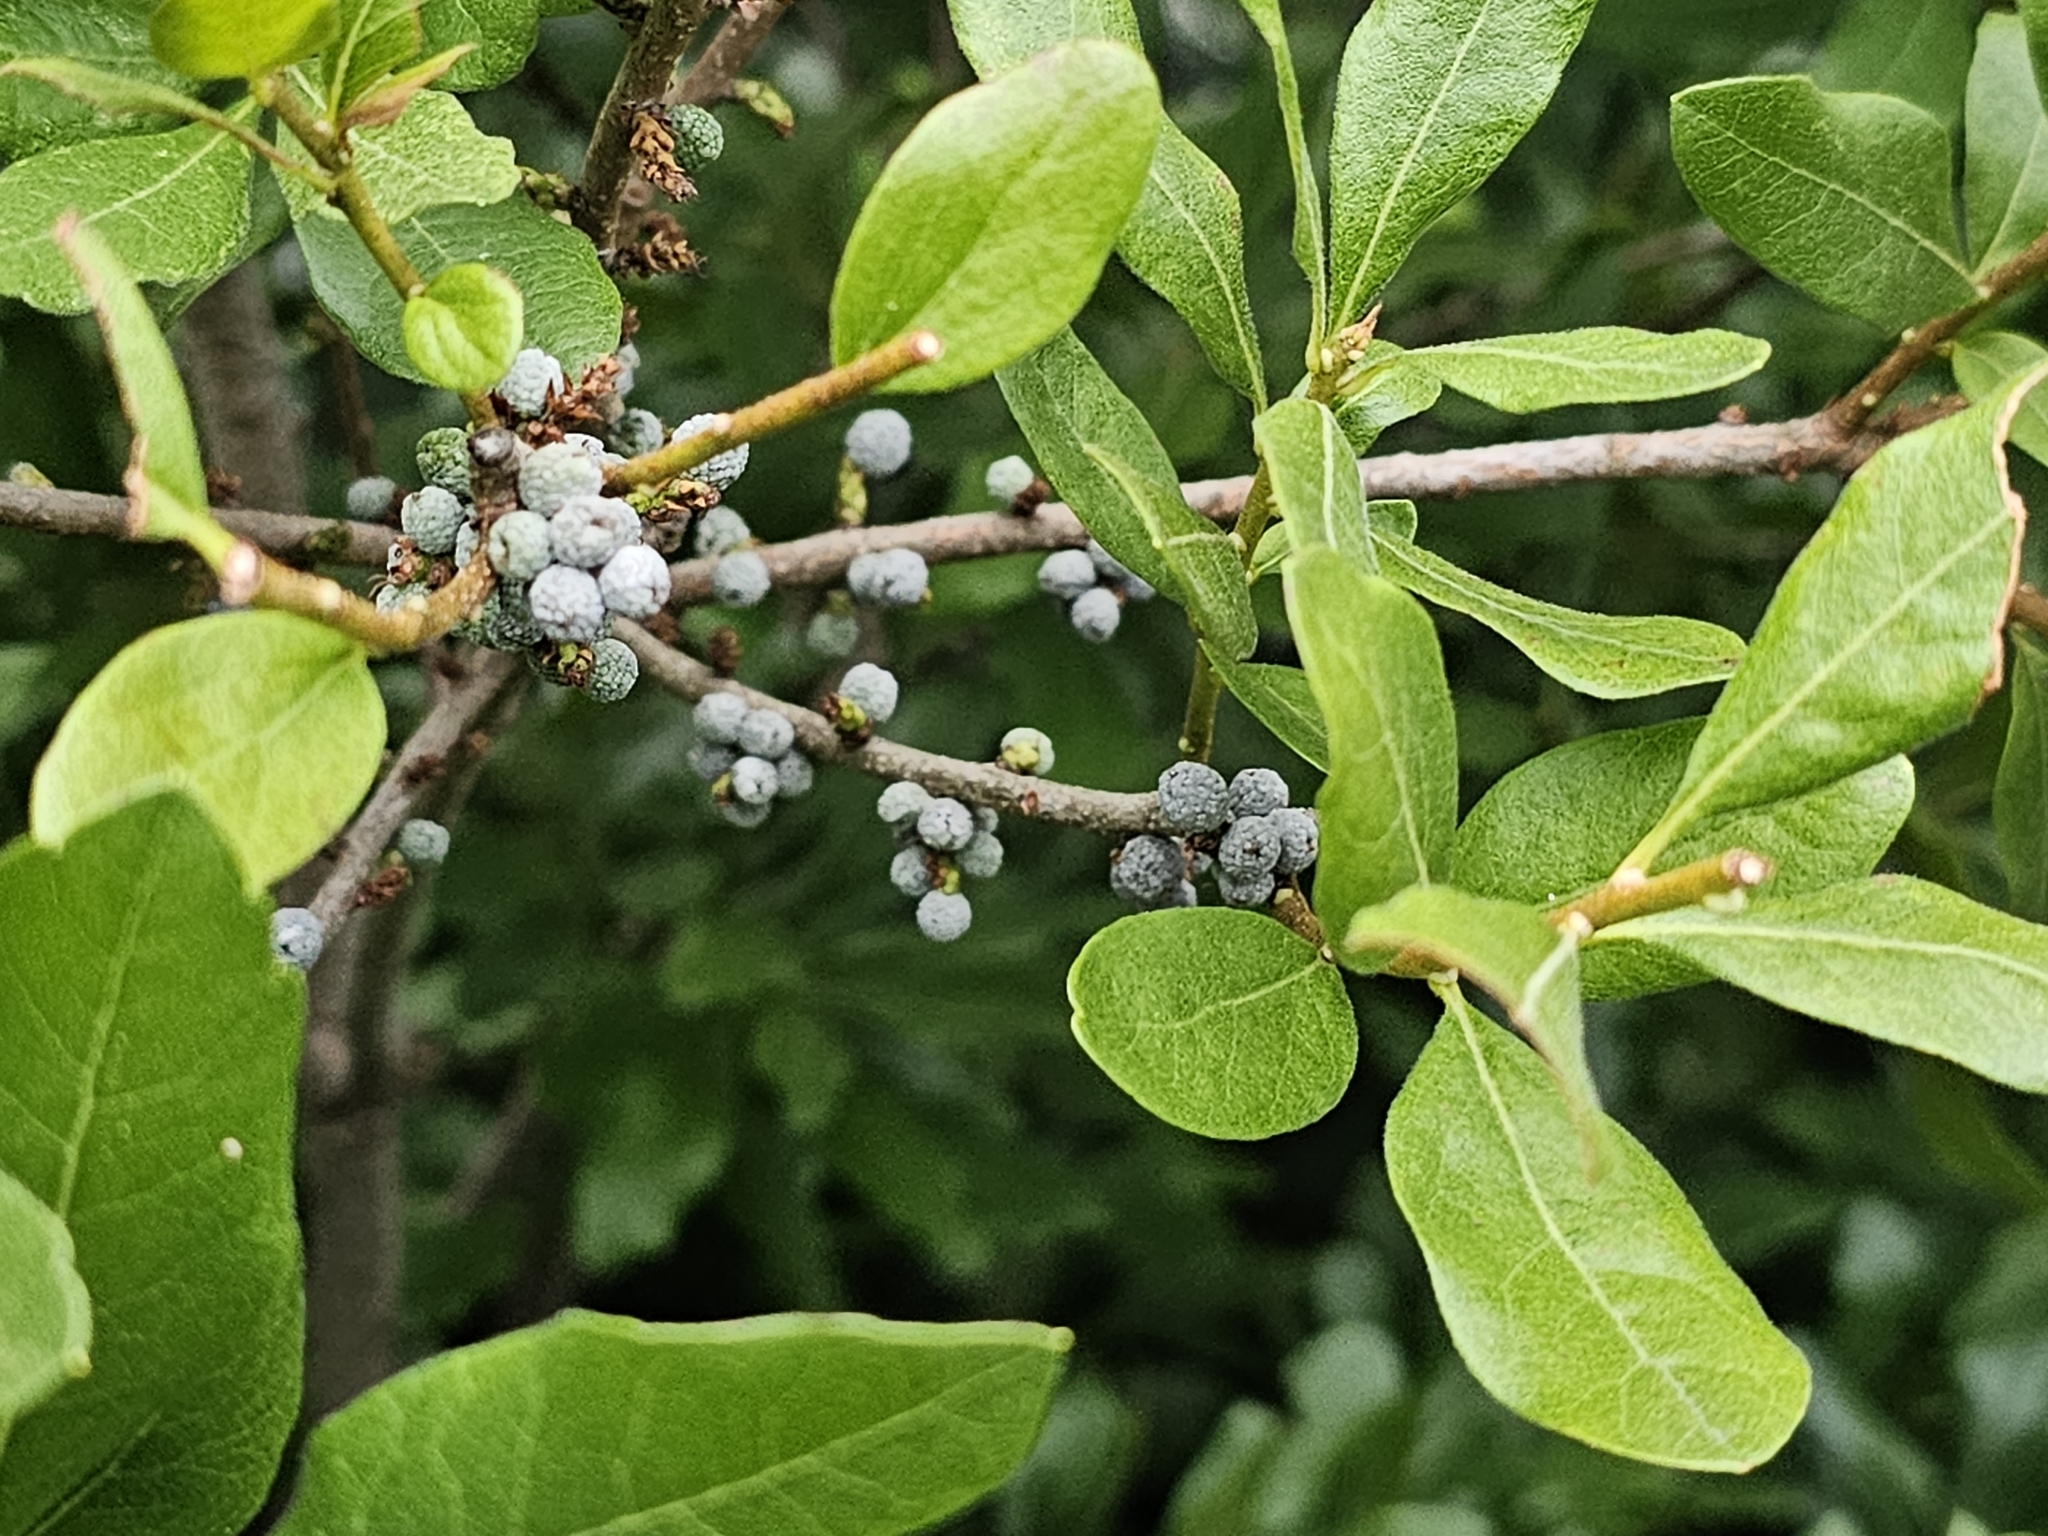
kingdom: Plantae
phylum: Tracheophyta
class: Magnoliopsida
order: Fagales
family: Myricaceae
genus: Morella
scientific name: Morella pensylvanica
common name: Northern bayberry
